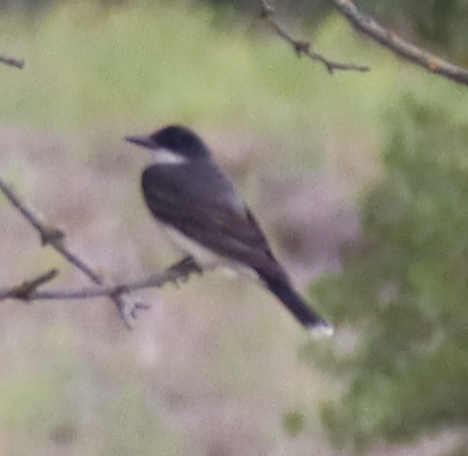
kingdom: Animalia
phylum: Chordata
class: Aves
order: Passeriformes
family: Tyrannidae
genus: Tyrannus
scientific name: Tyrannus tyrannus
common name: Eastern kingbird
